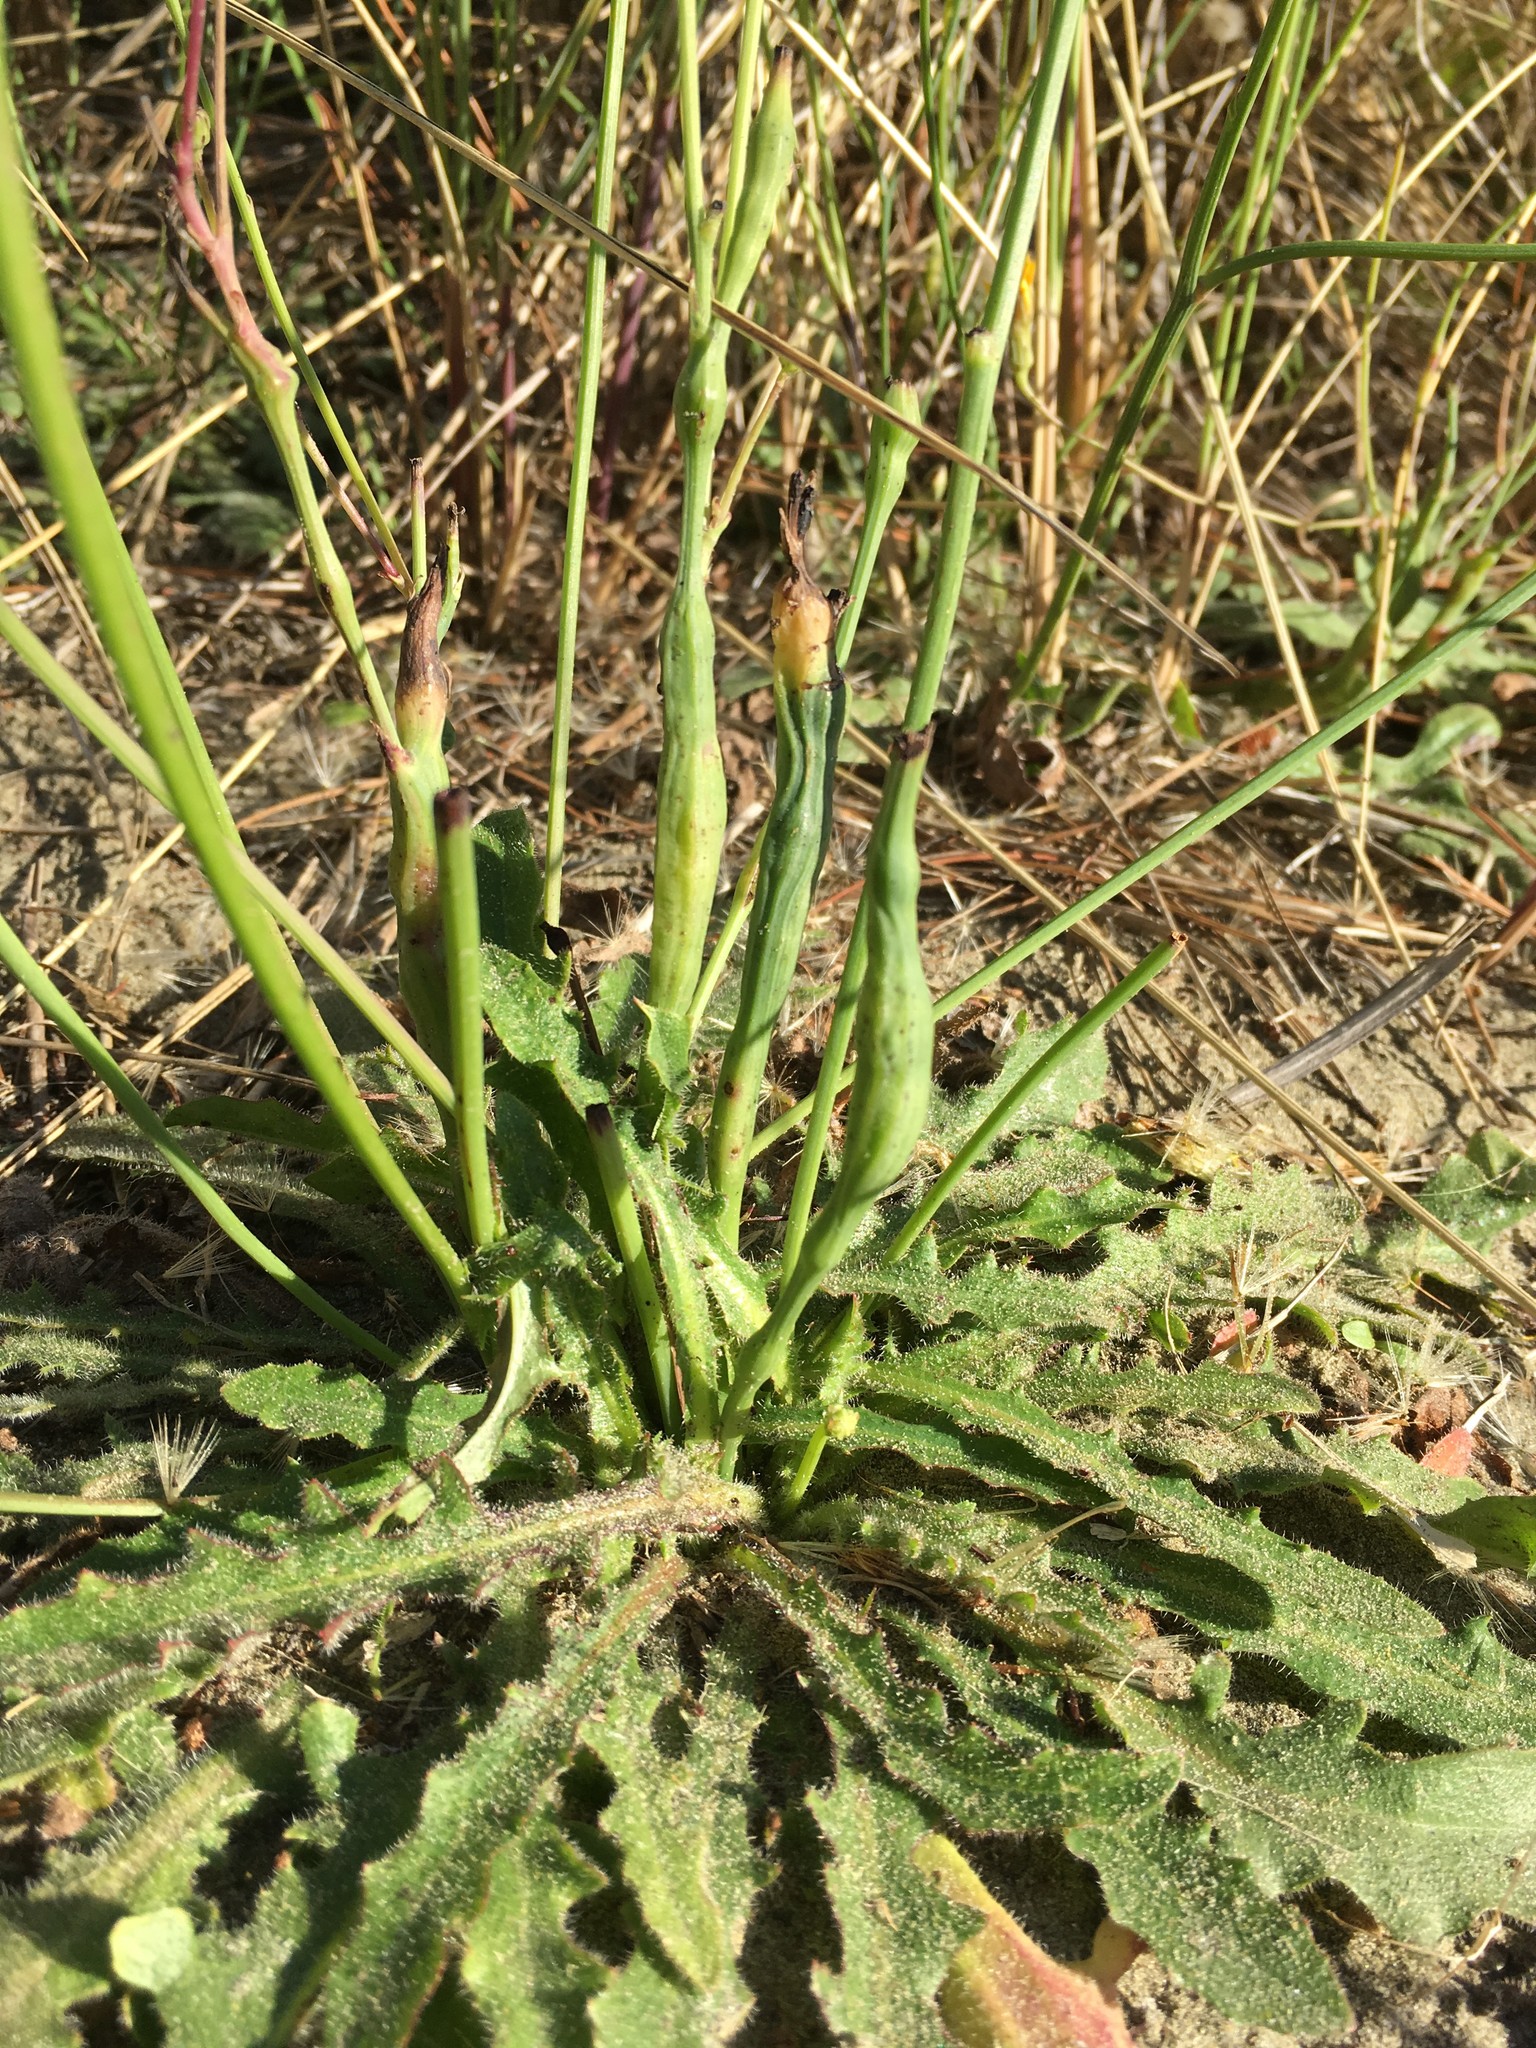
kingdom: Animalia
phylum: Arthropoda
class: Insecta
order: Hymenoptera
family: Cynipidae
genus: Phanacis
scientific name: Phanacis hypochoeridis
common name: Gall wasp
